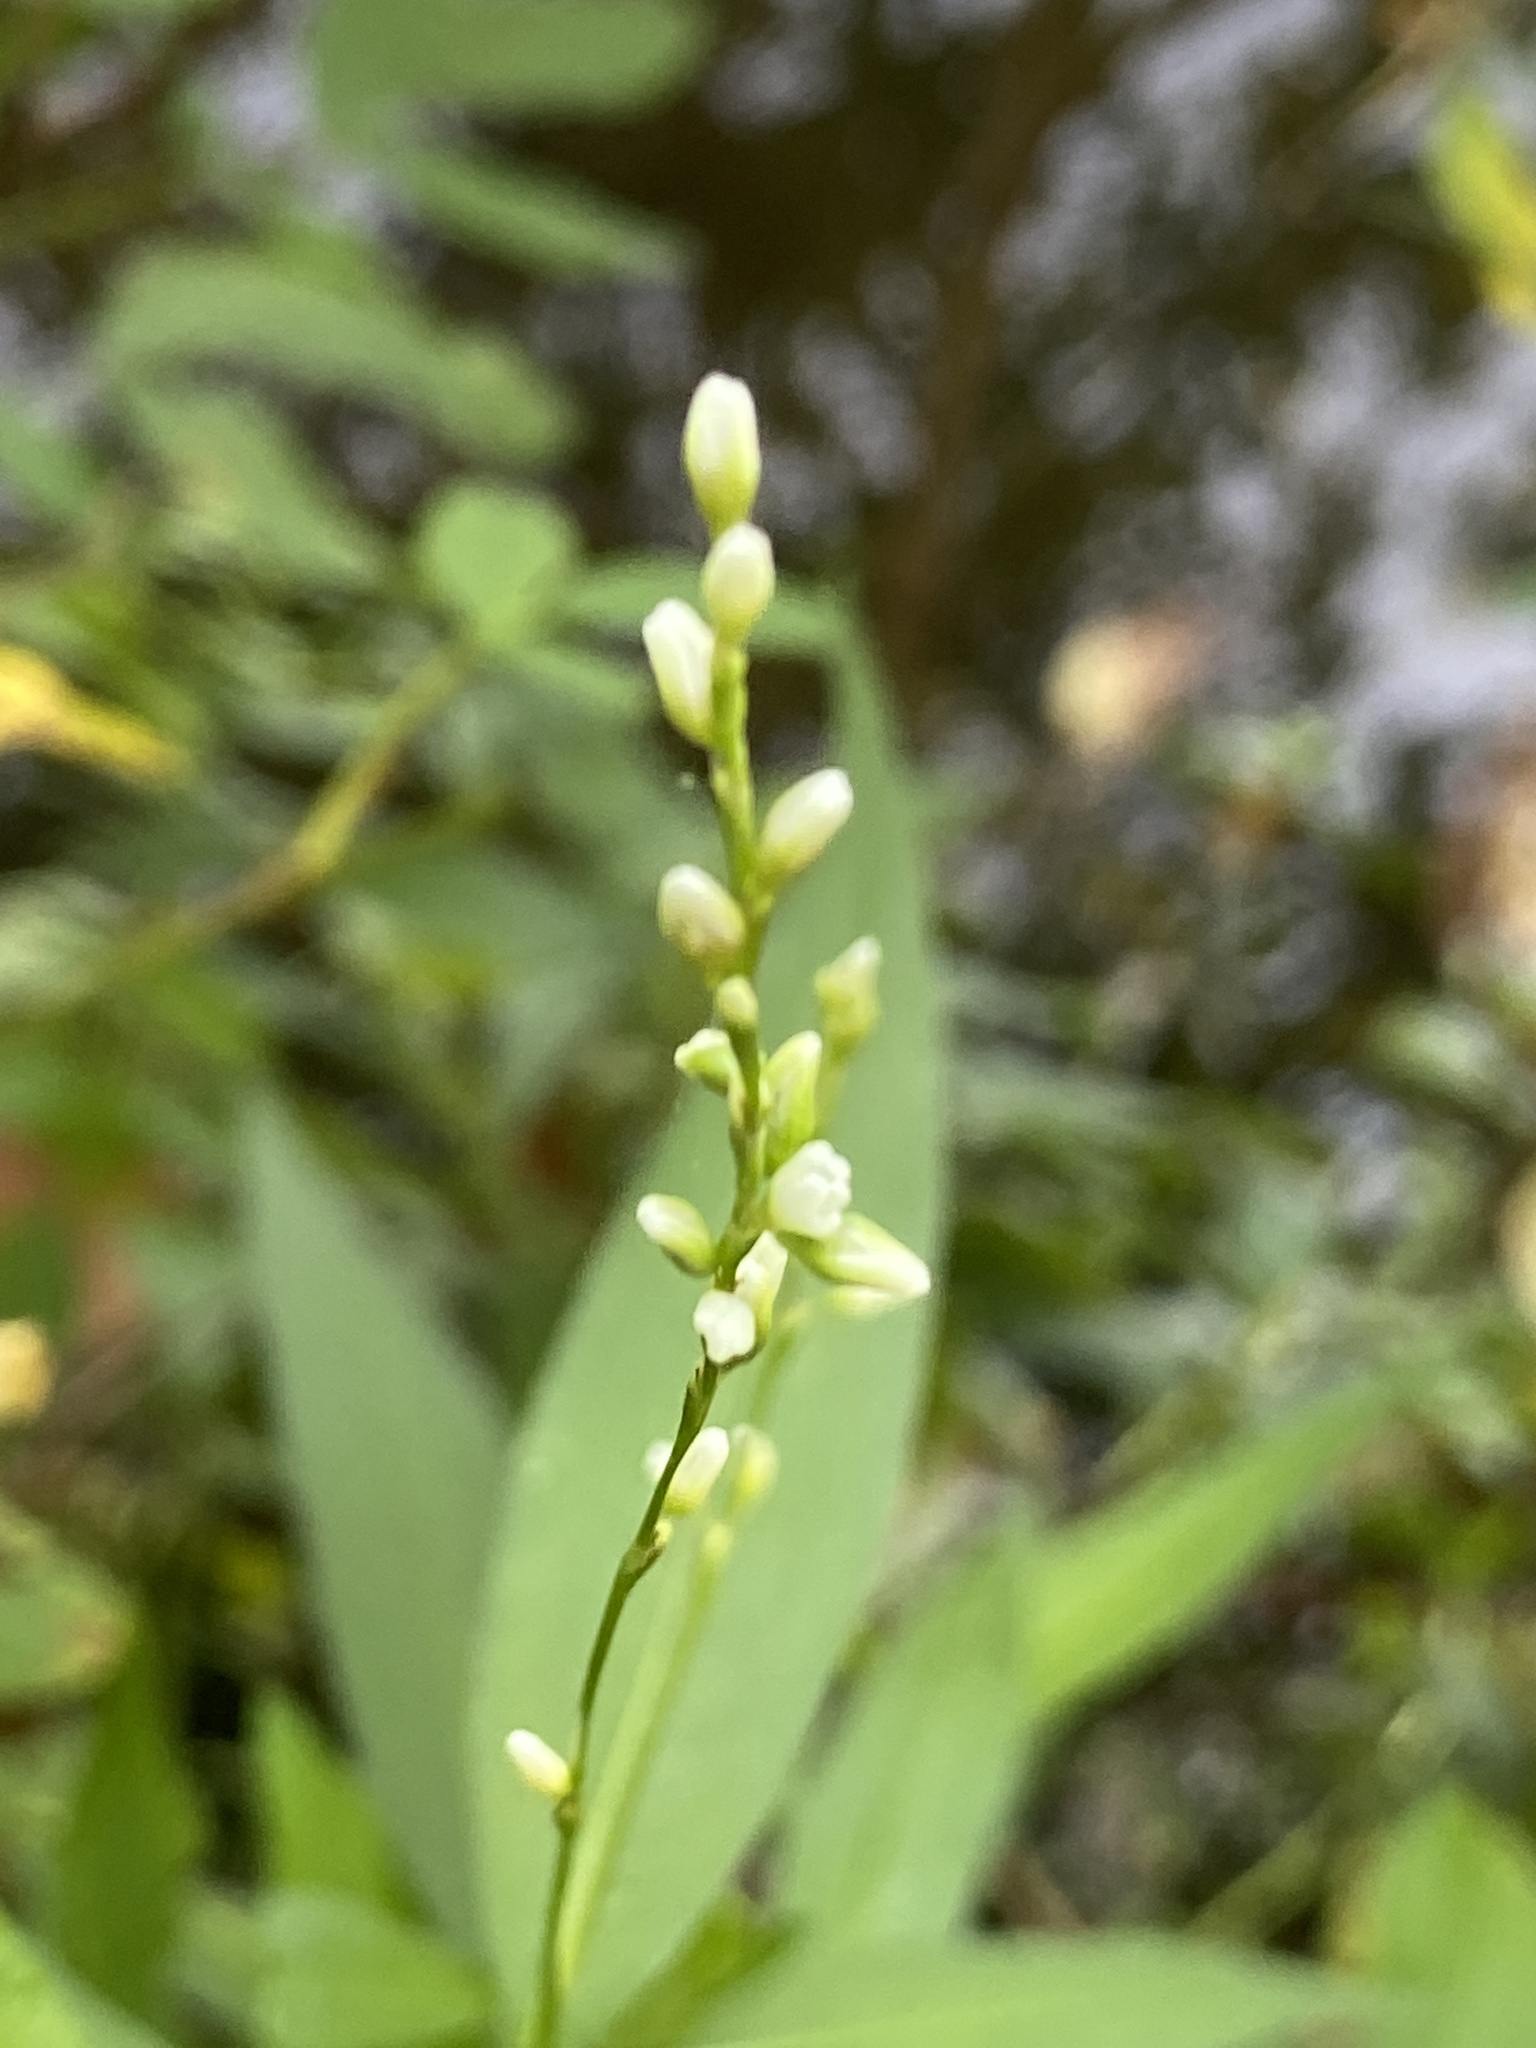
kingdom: Plantae
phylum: Tracheophyta
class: Magnoliopsida
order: Caryophyllales
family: Polygonaceae
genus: Persicaria
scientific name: Persicaria punctata
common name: Dotted smartweed
